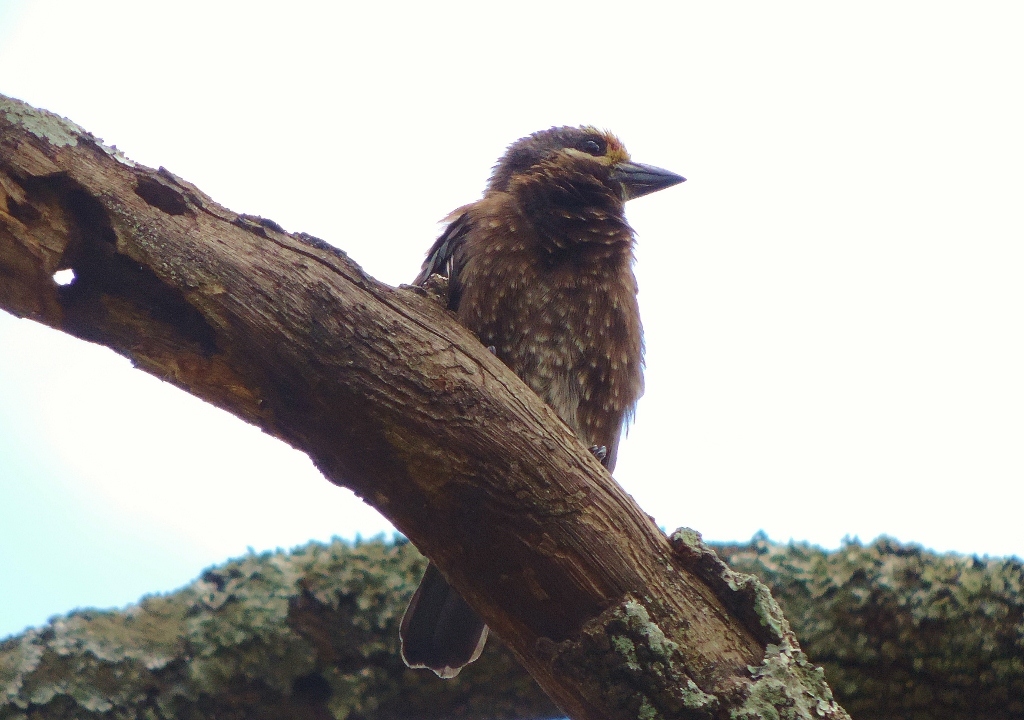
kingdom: Animalia
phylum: Chordata
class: Aves
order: Piciformes
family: Lybiidae
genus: Stactolaema
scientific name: Stactolaema whytii
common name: Whyte's barbet
